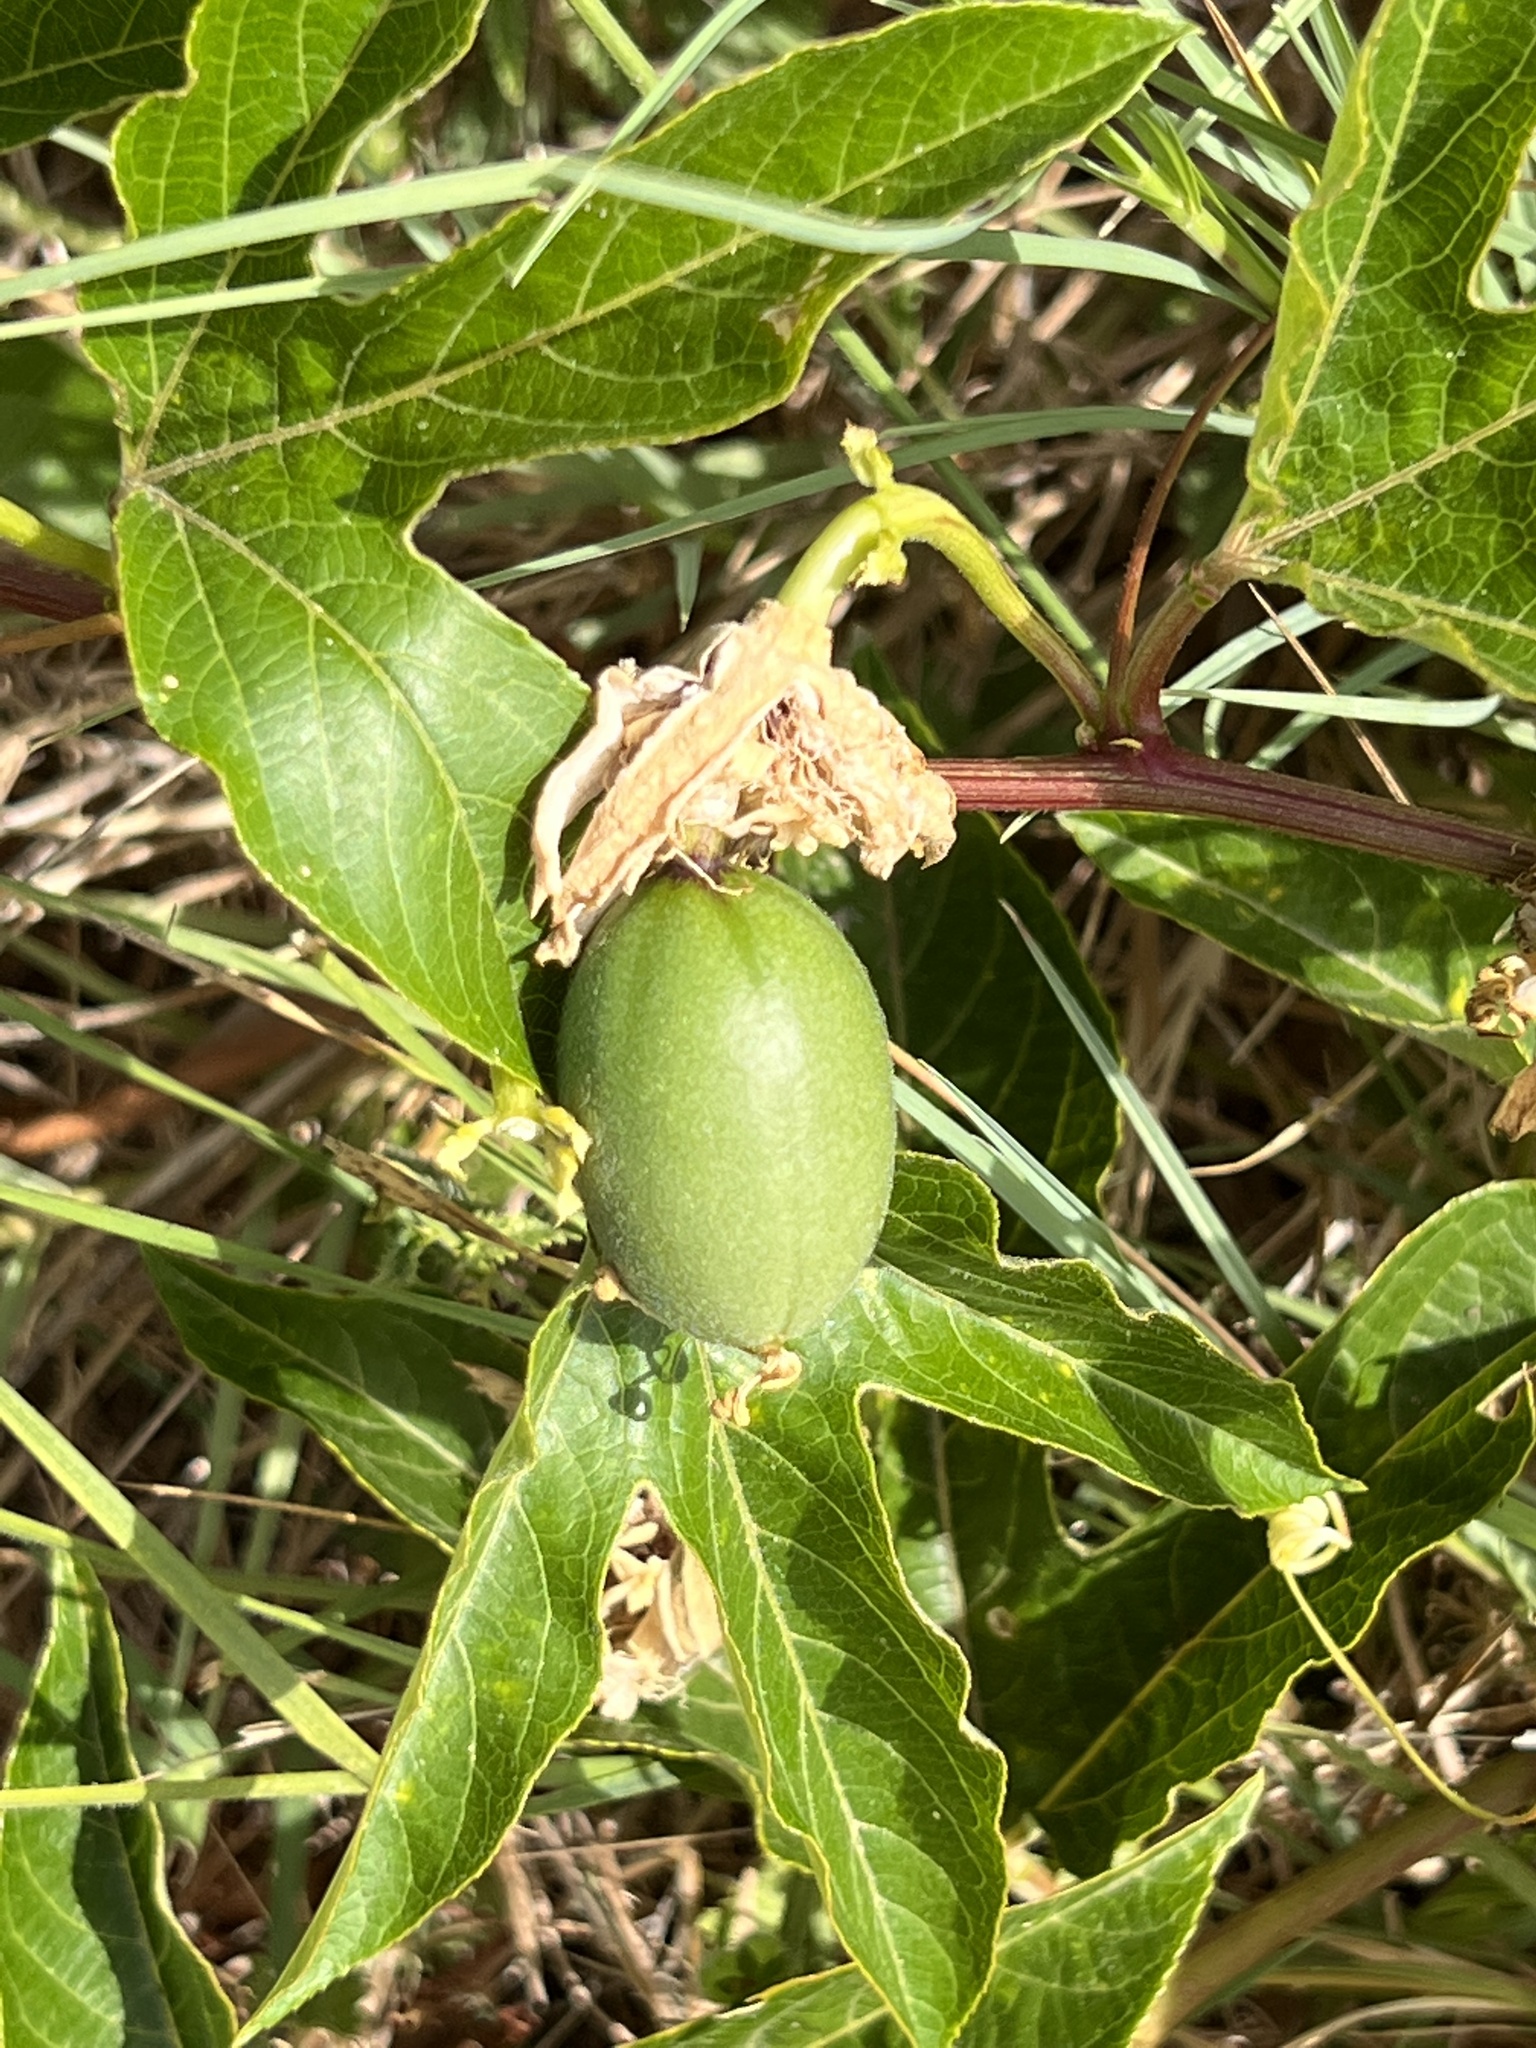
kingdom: Plantae
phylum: Tracheophyta
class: Magnoliopsida
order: Malpighiales
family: Passifloraceae
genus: Passiflora
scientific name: Passiflora incarnata
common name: Apricot-vine
